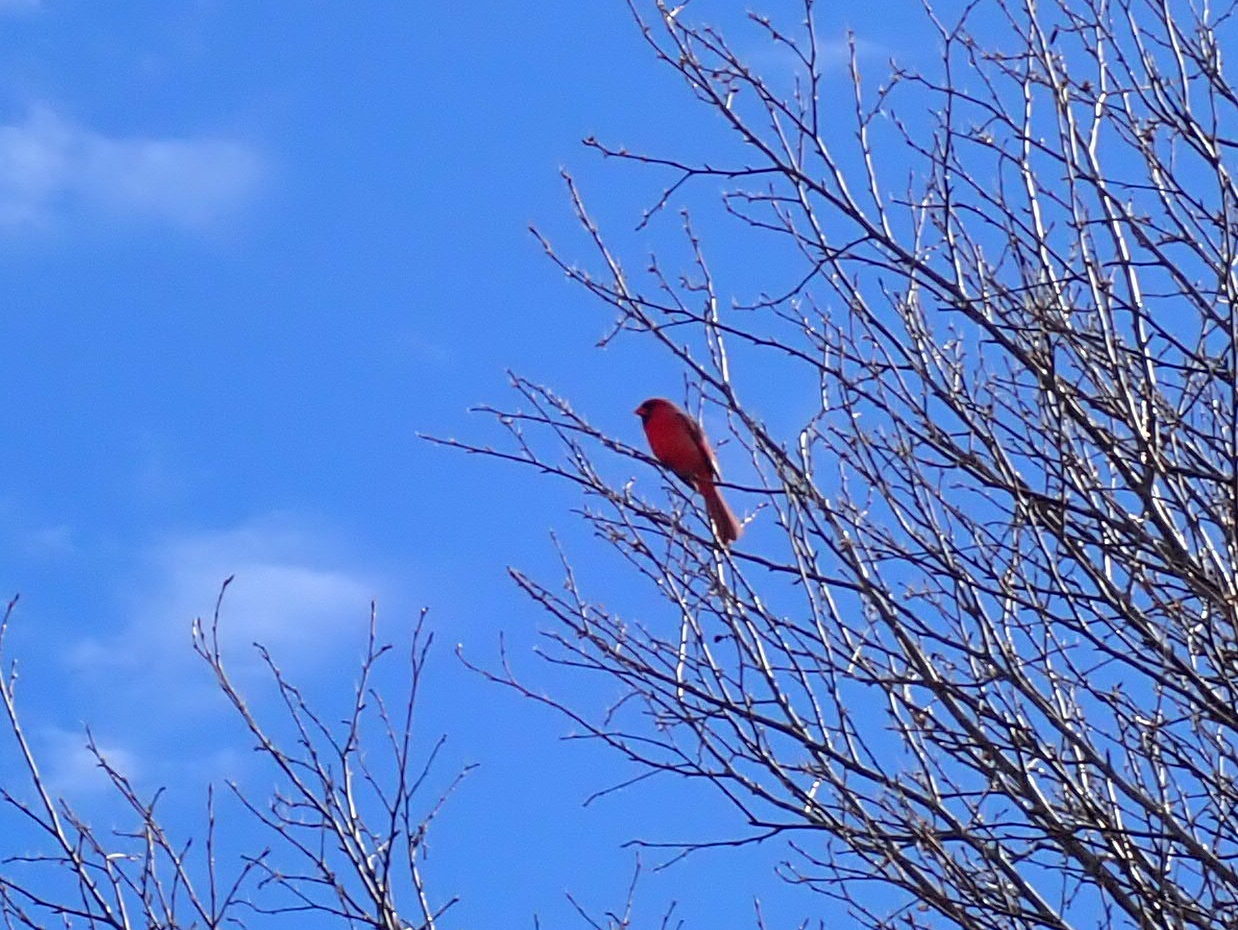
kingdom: Animalia
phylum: Chordata
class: Aves
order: Passeriformes
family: Cardinalidae
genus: Cardinalis
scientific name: Cardinalis cardinalis
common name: Northern cardinal
